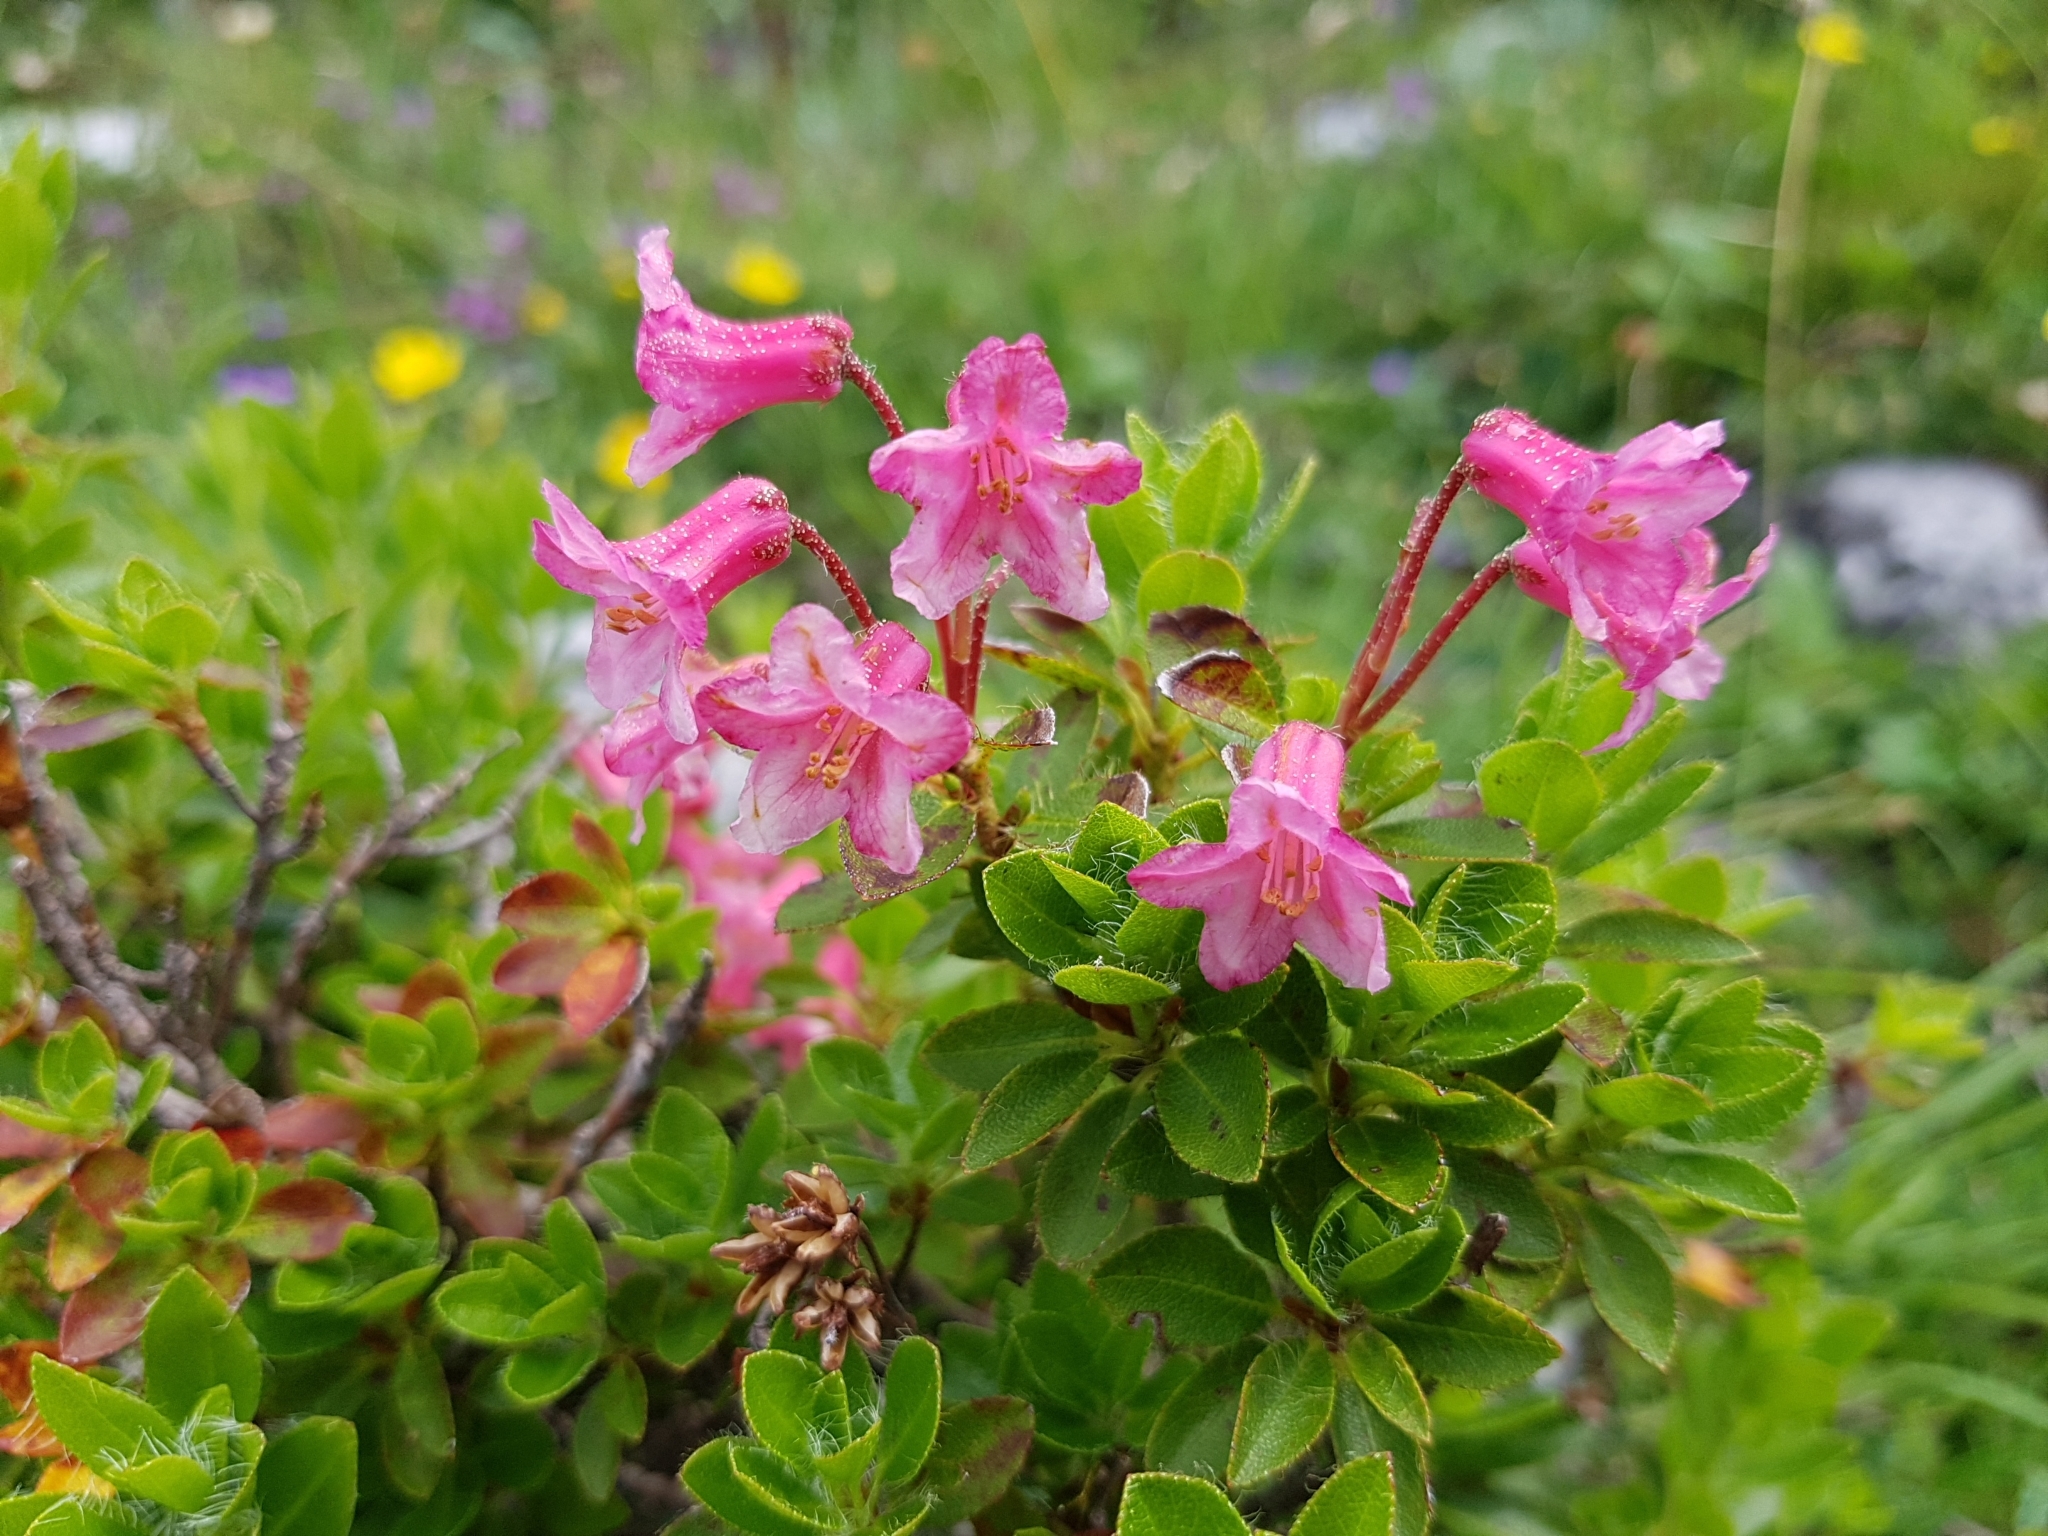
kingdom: Plantae
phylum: Tracheophyta
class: Magnoliopsida
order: Ericales
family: Ericaceae
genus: Rhododendron
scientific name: Rhododendron hirsutum
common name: Hairy alpenrose
